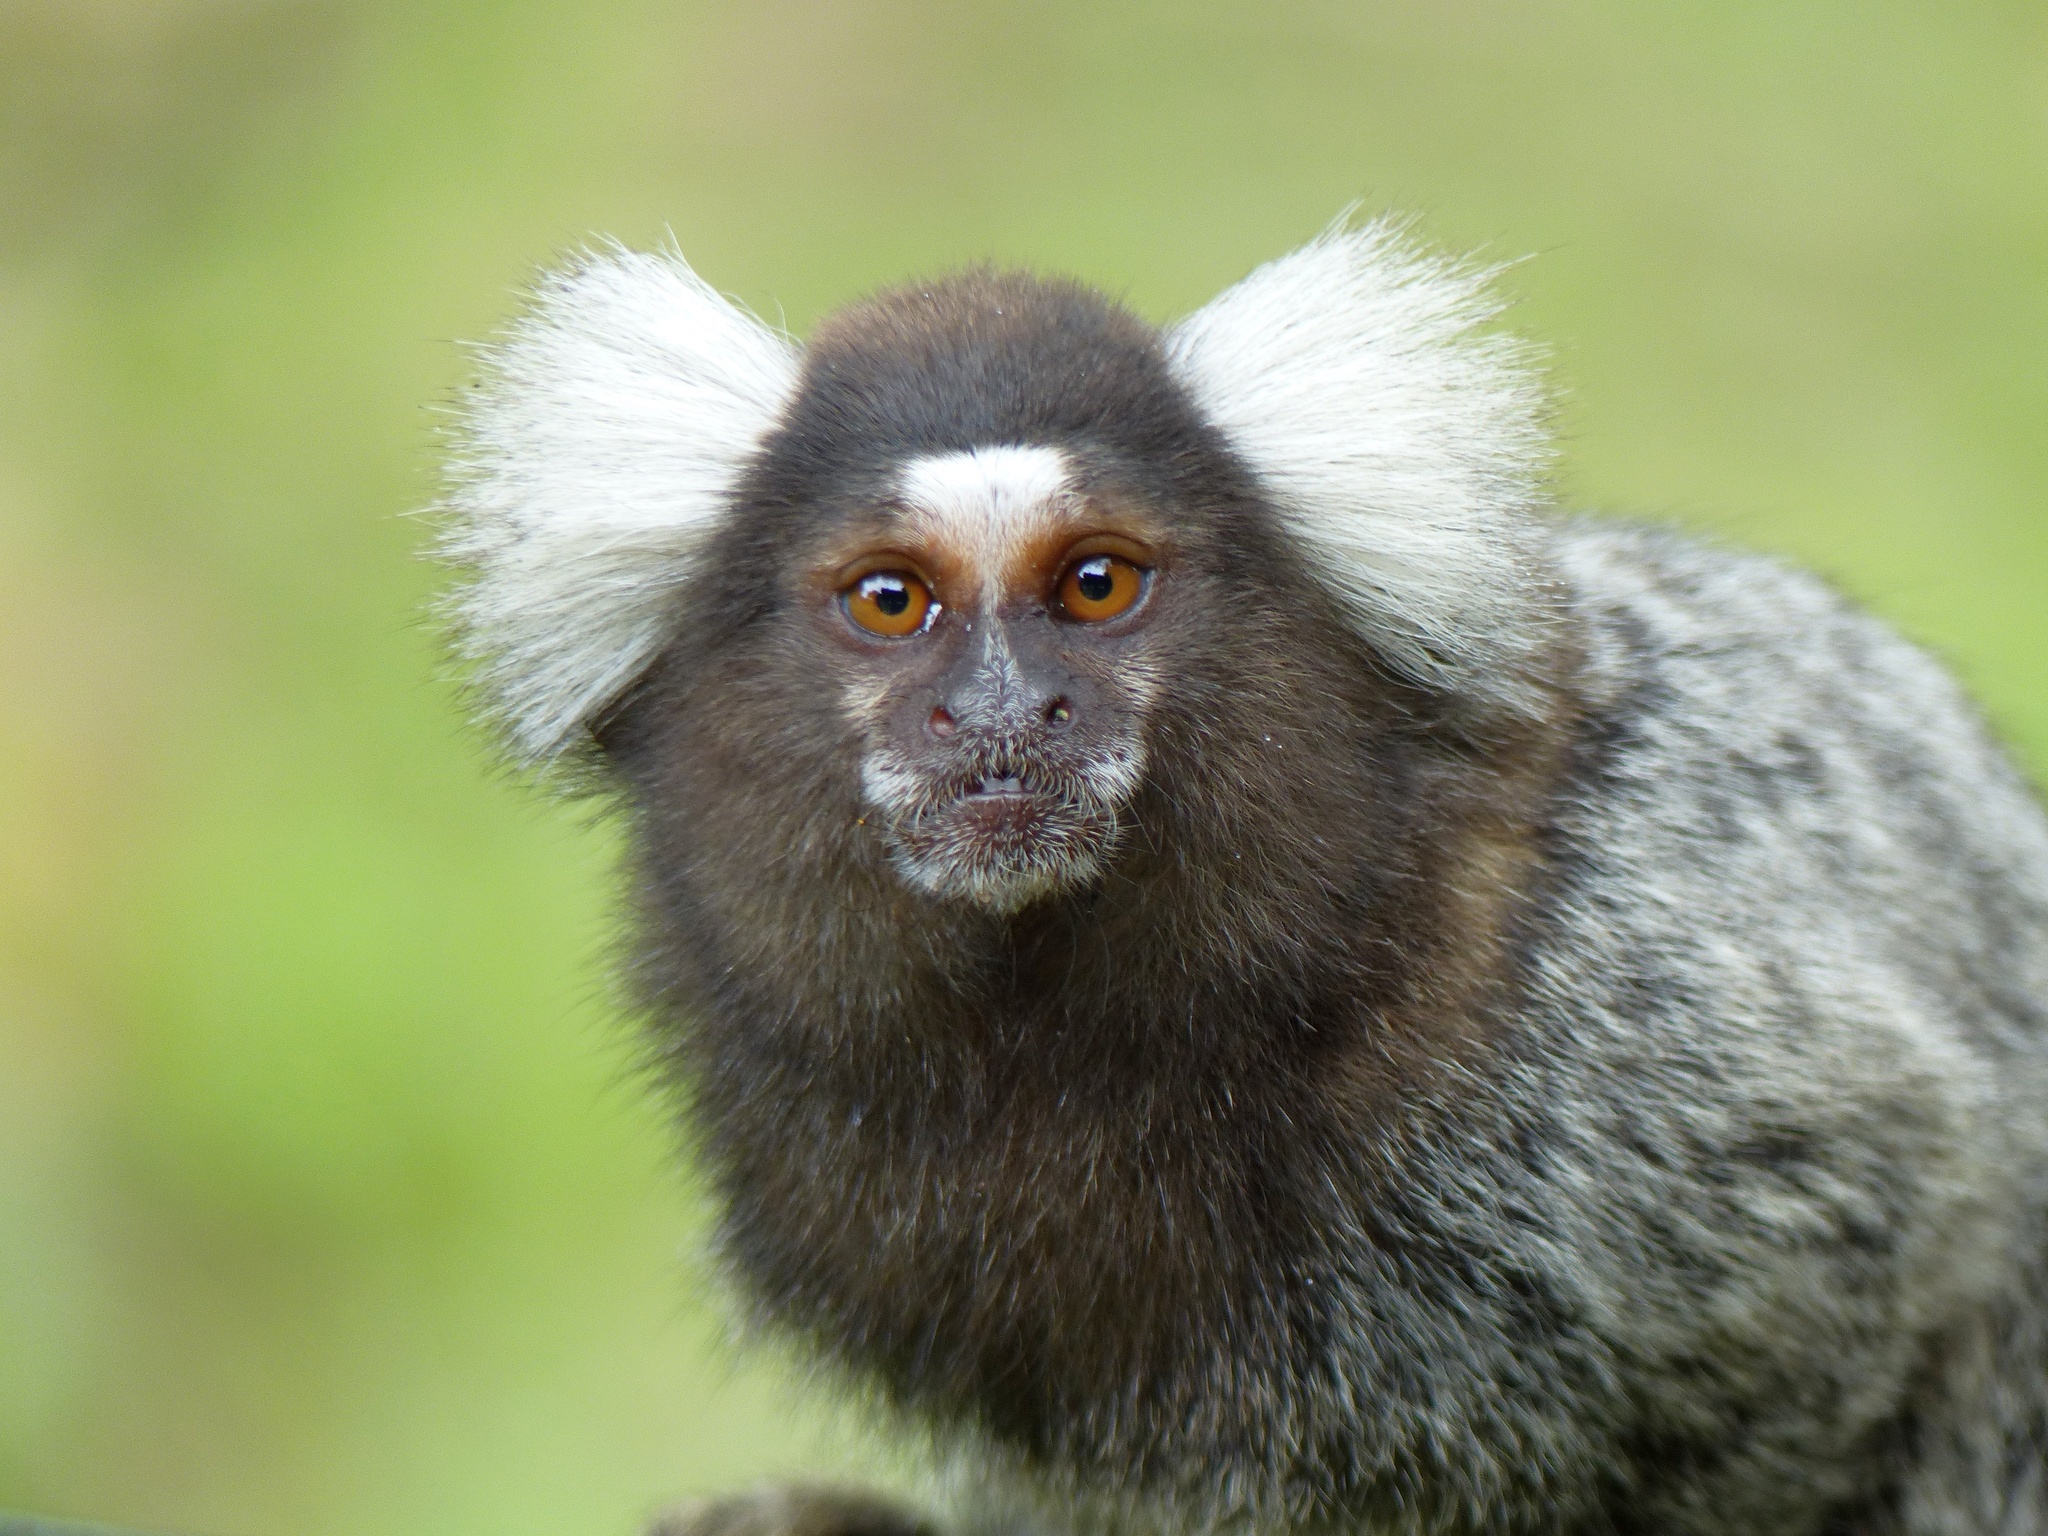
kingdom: Animalia
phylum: Chordata
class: Mammalia
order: Primates
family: Callitrichidae
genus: Callithrix
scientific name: Callithrix jacchus
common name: Common marmoset
